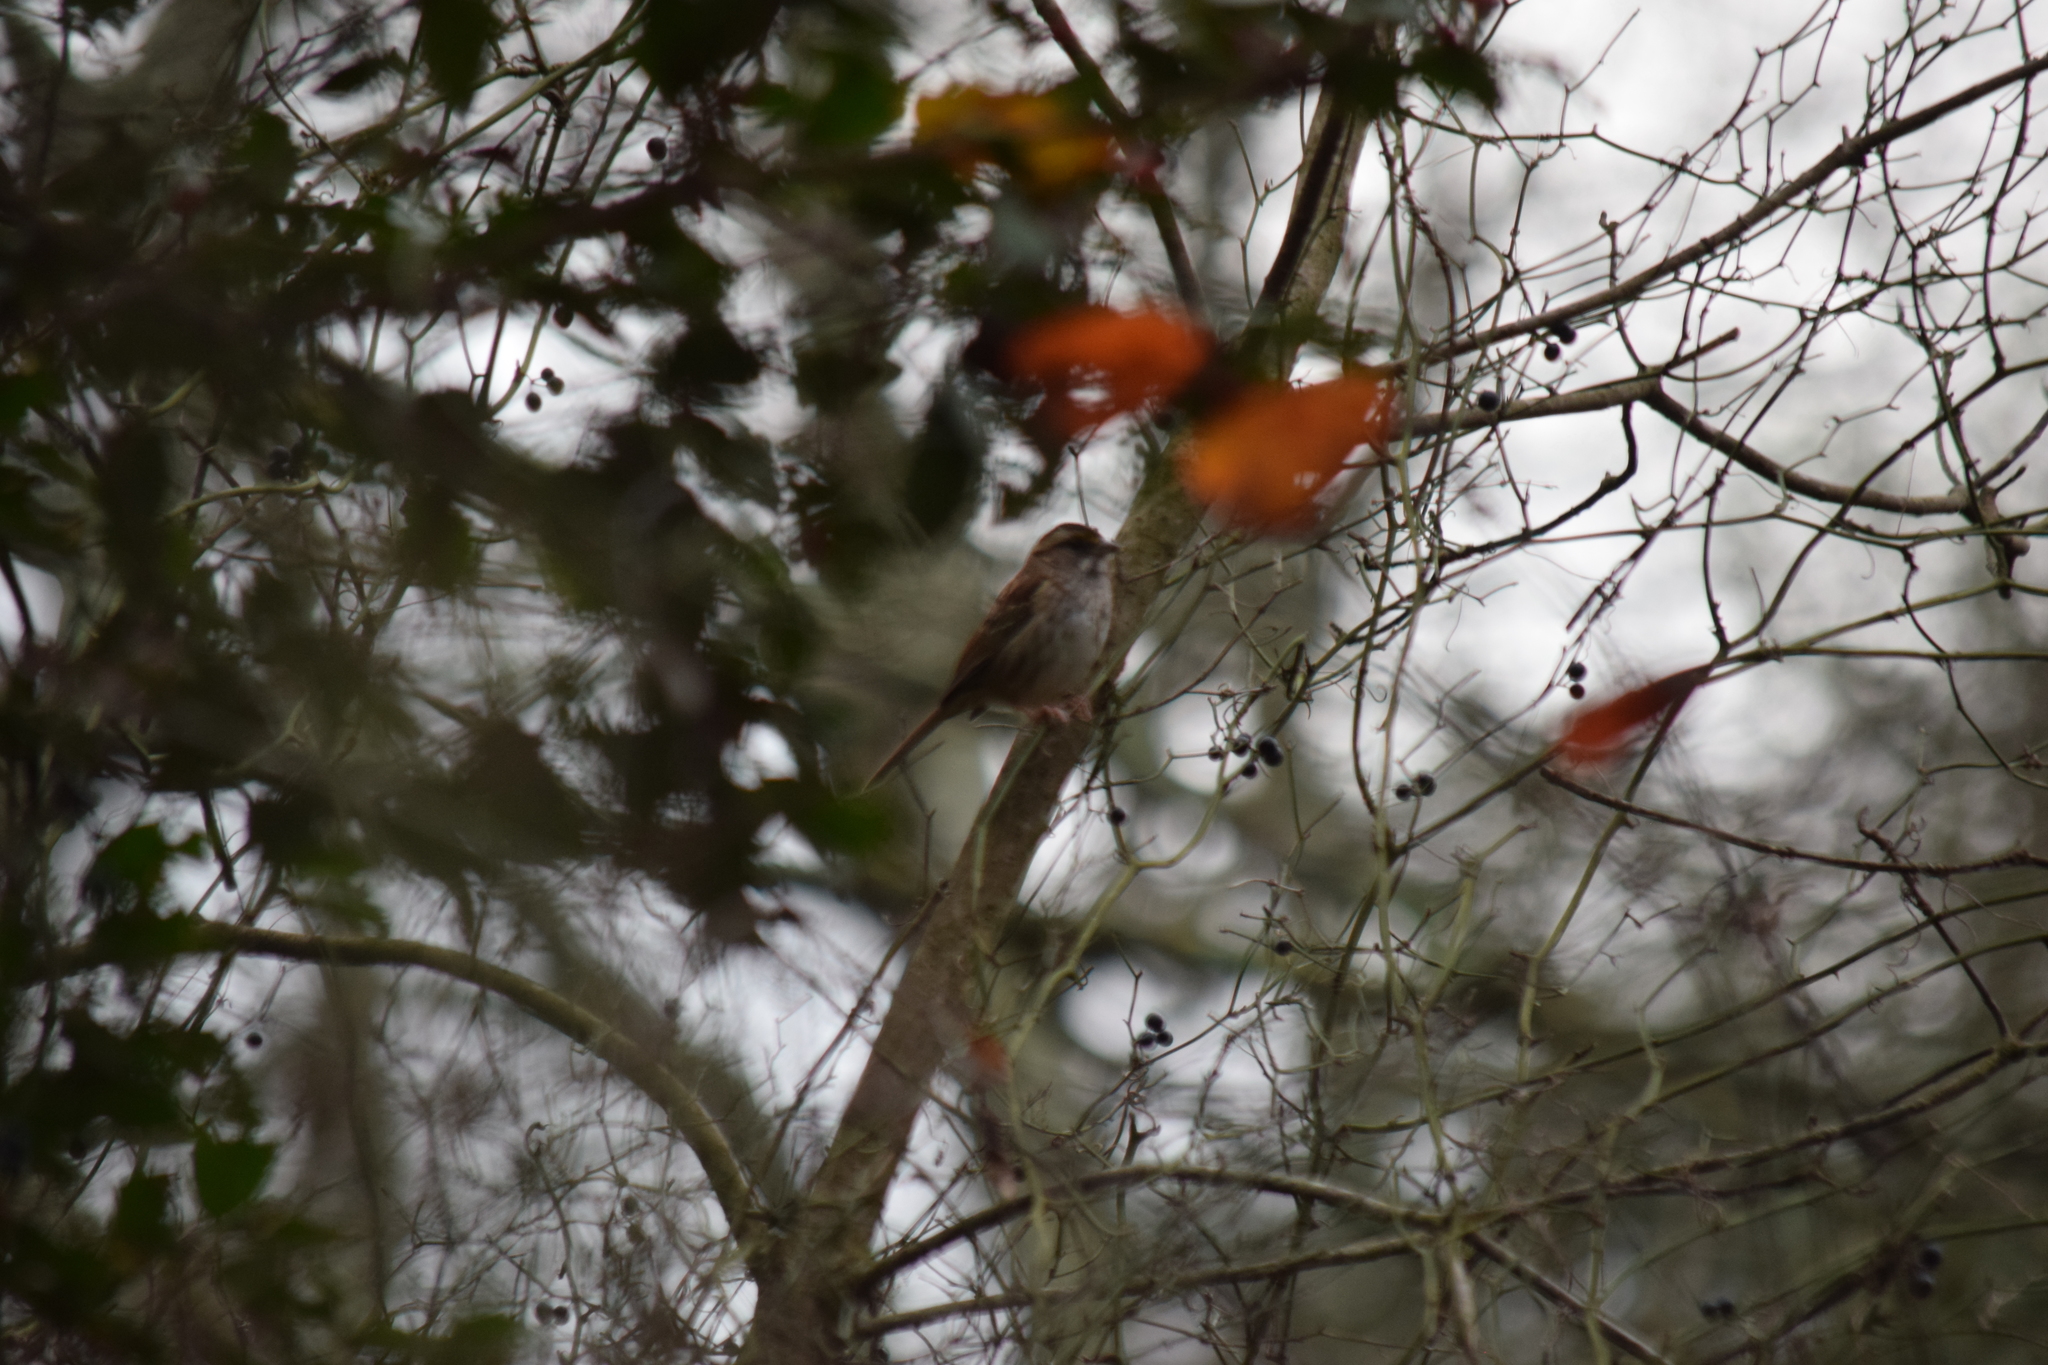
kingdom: Animalia
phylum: Chordata
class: Aves
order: Passeriformes
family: Passerellidae
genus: Zonotrichia
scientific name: Zonotrichia albicollis
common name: White-throated sparrow
